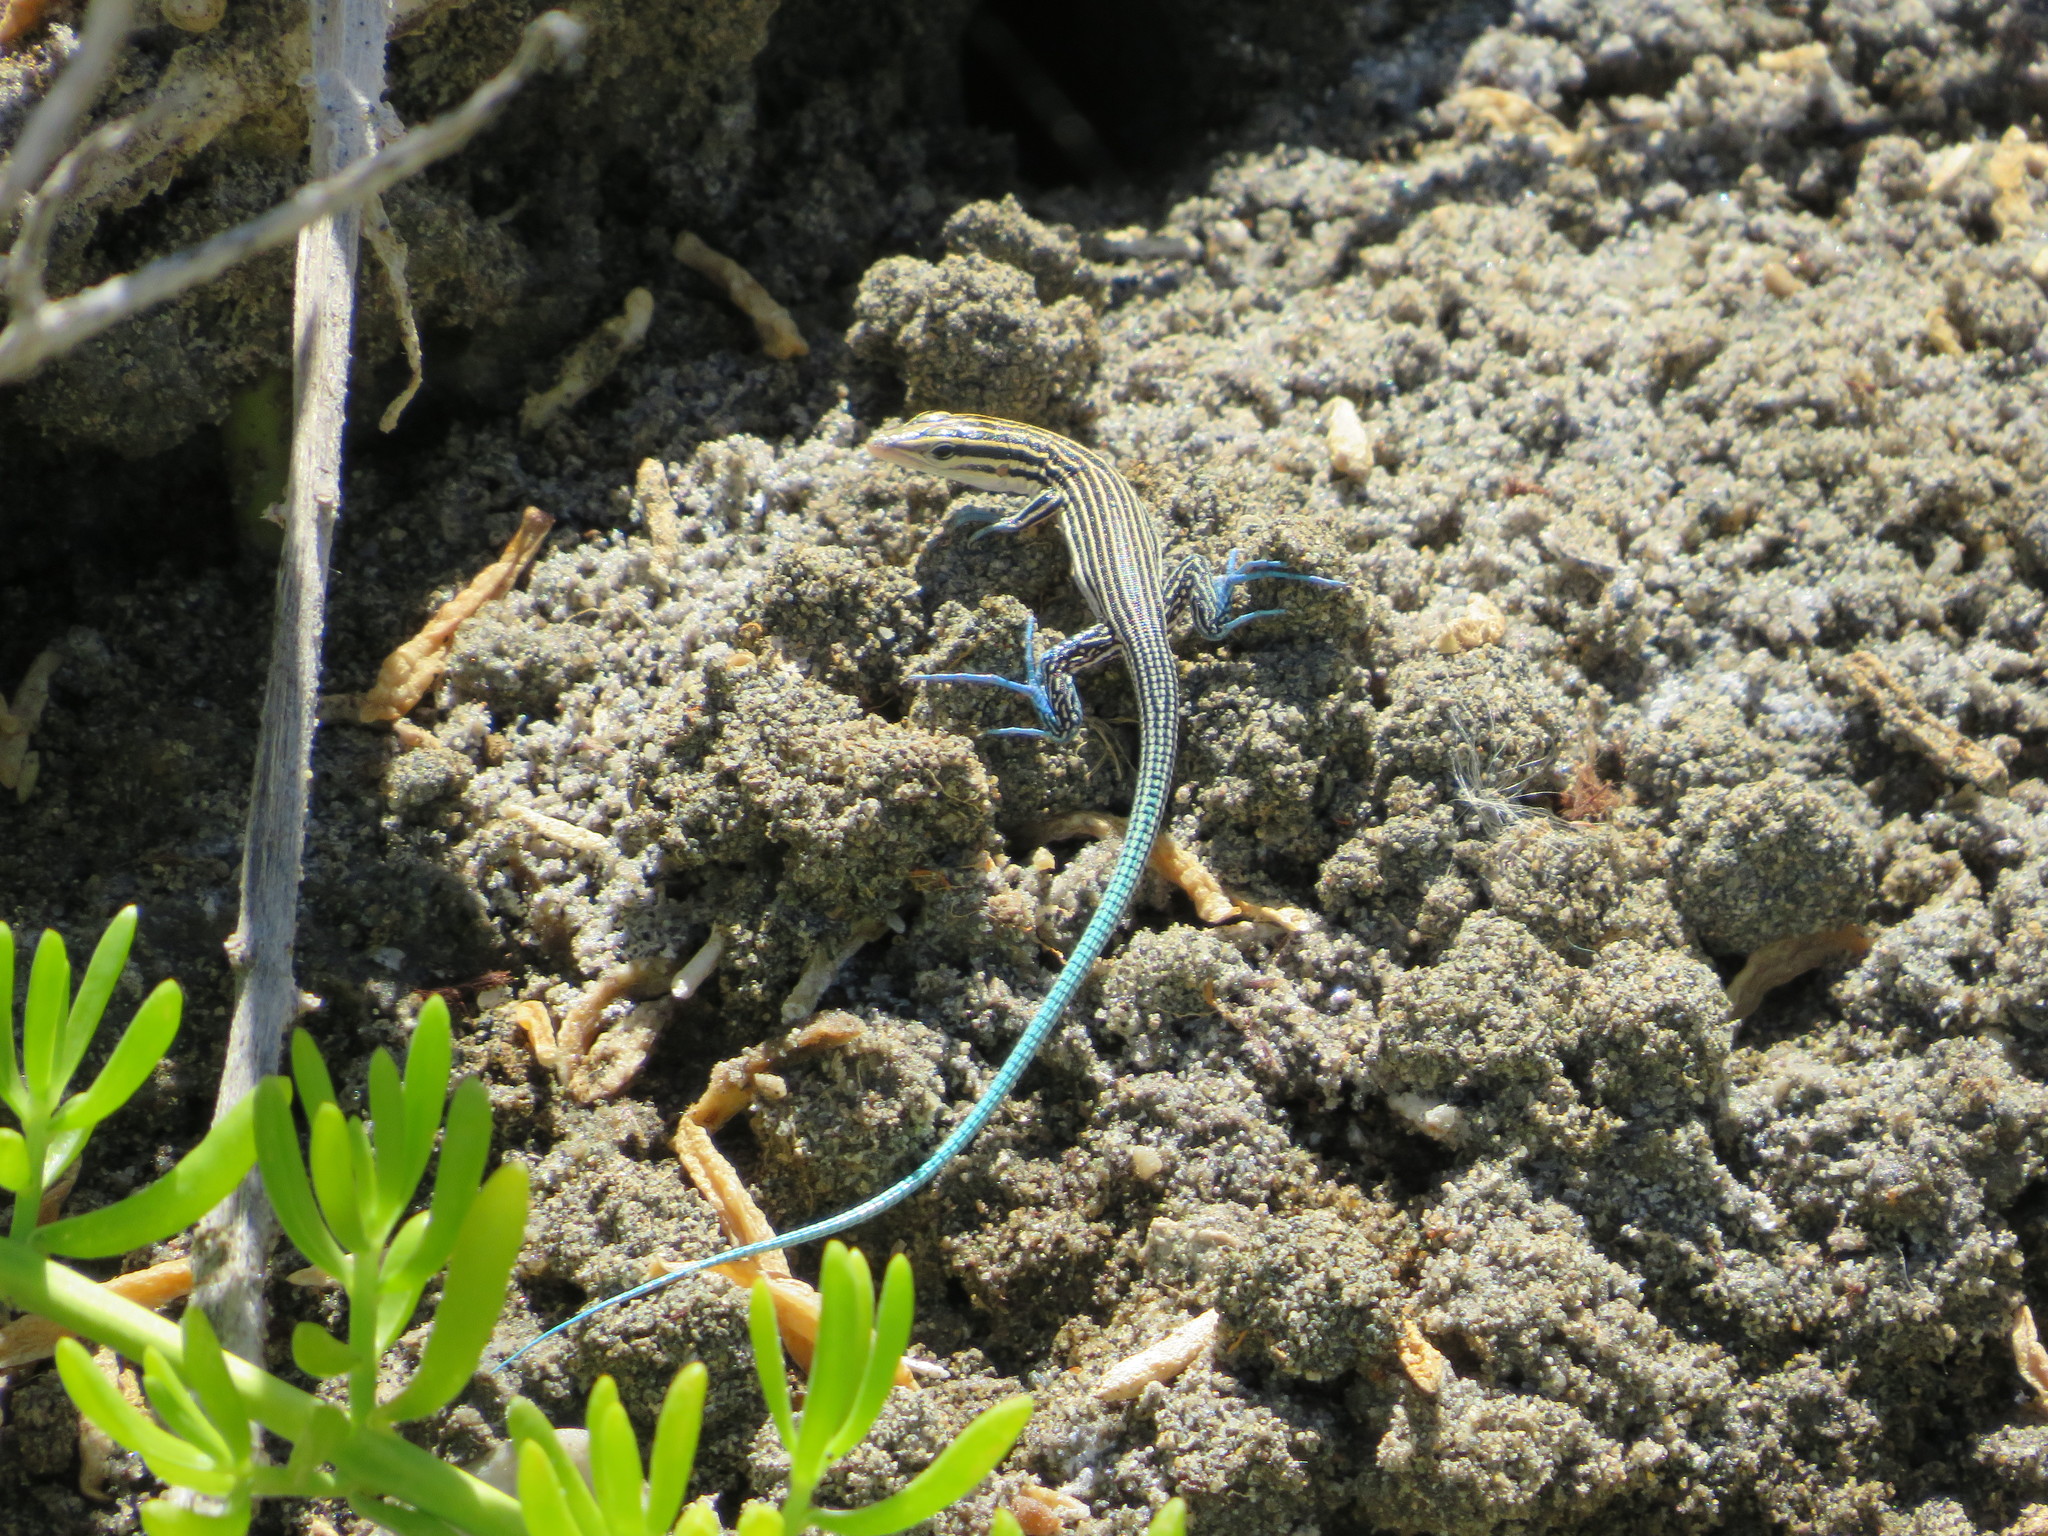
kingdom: Animalia
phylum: Chordata
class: Squamata
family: Teiidae
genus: Pholidoscelis
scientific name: Pholidoscelis lineolatus
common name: Pigmy blue-tailed ameiva
